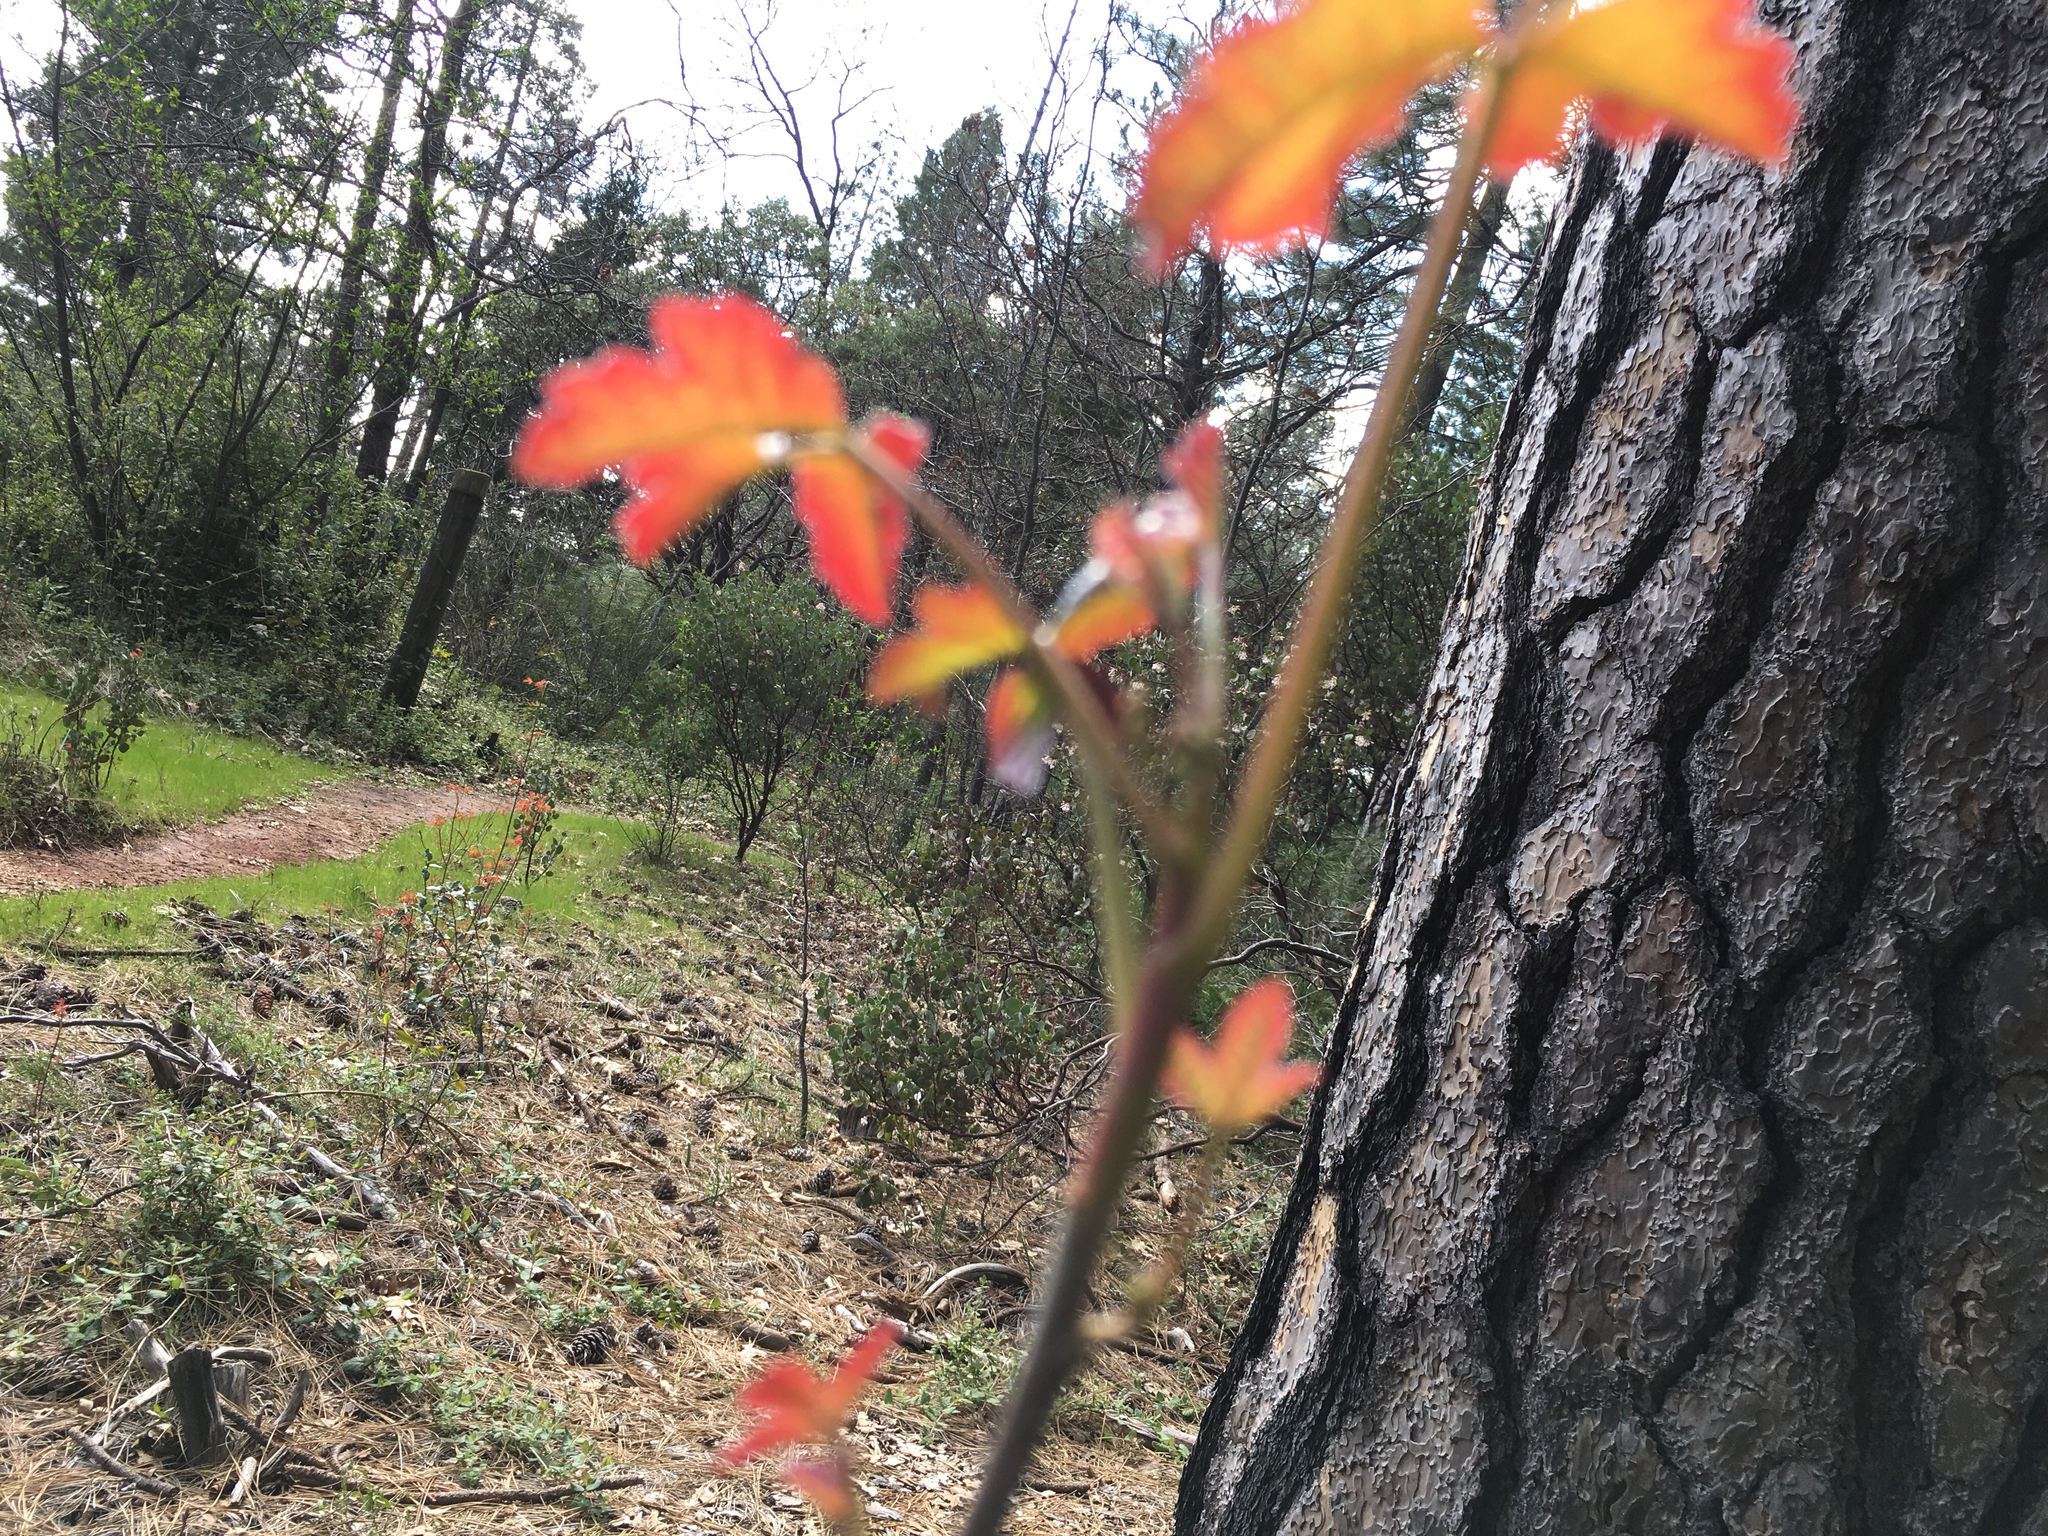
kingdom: Plantae
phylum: Tracheophyta
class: Magnoliopsida
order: Sapindales
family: Anacardiaceae
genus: Toxicodendron
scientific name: Toxicodendron diversilobum
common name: Pacific poison-oak
